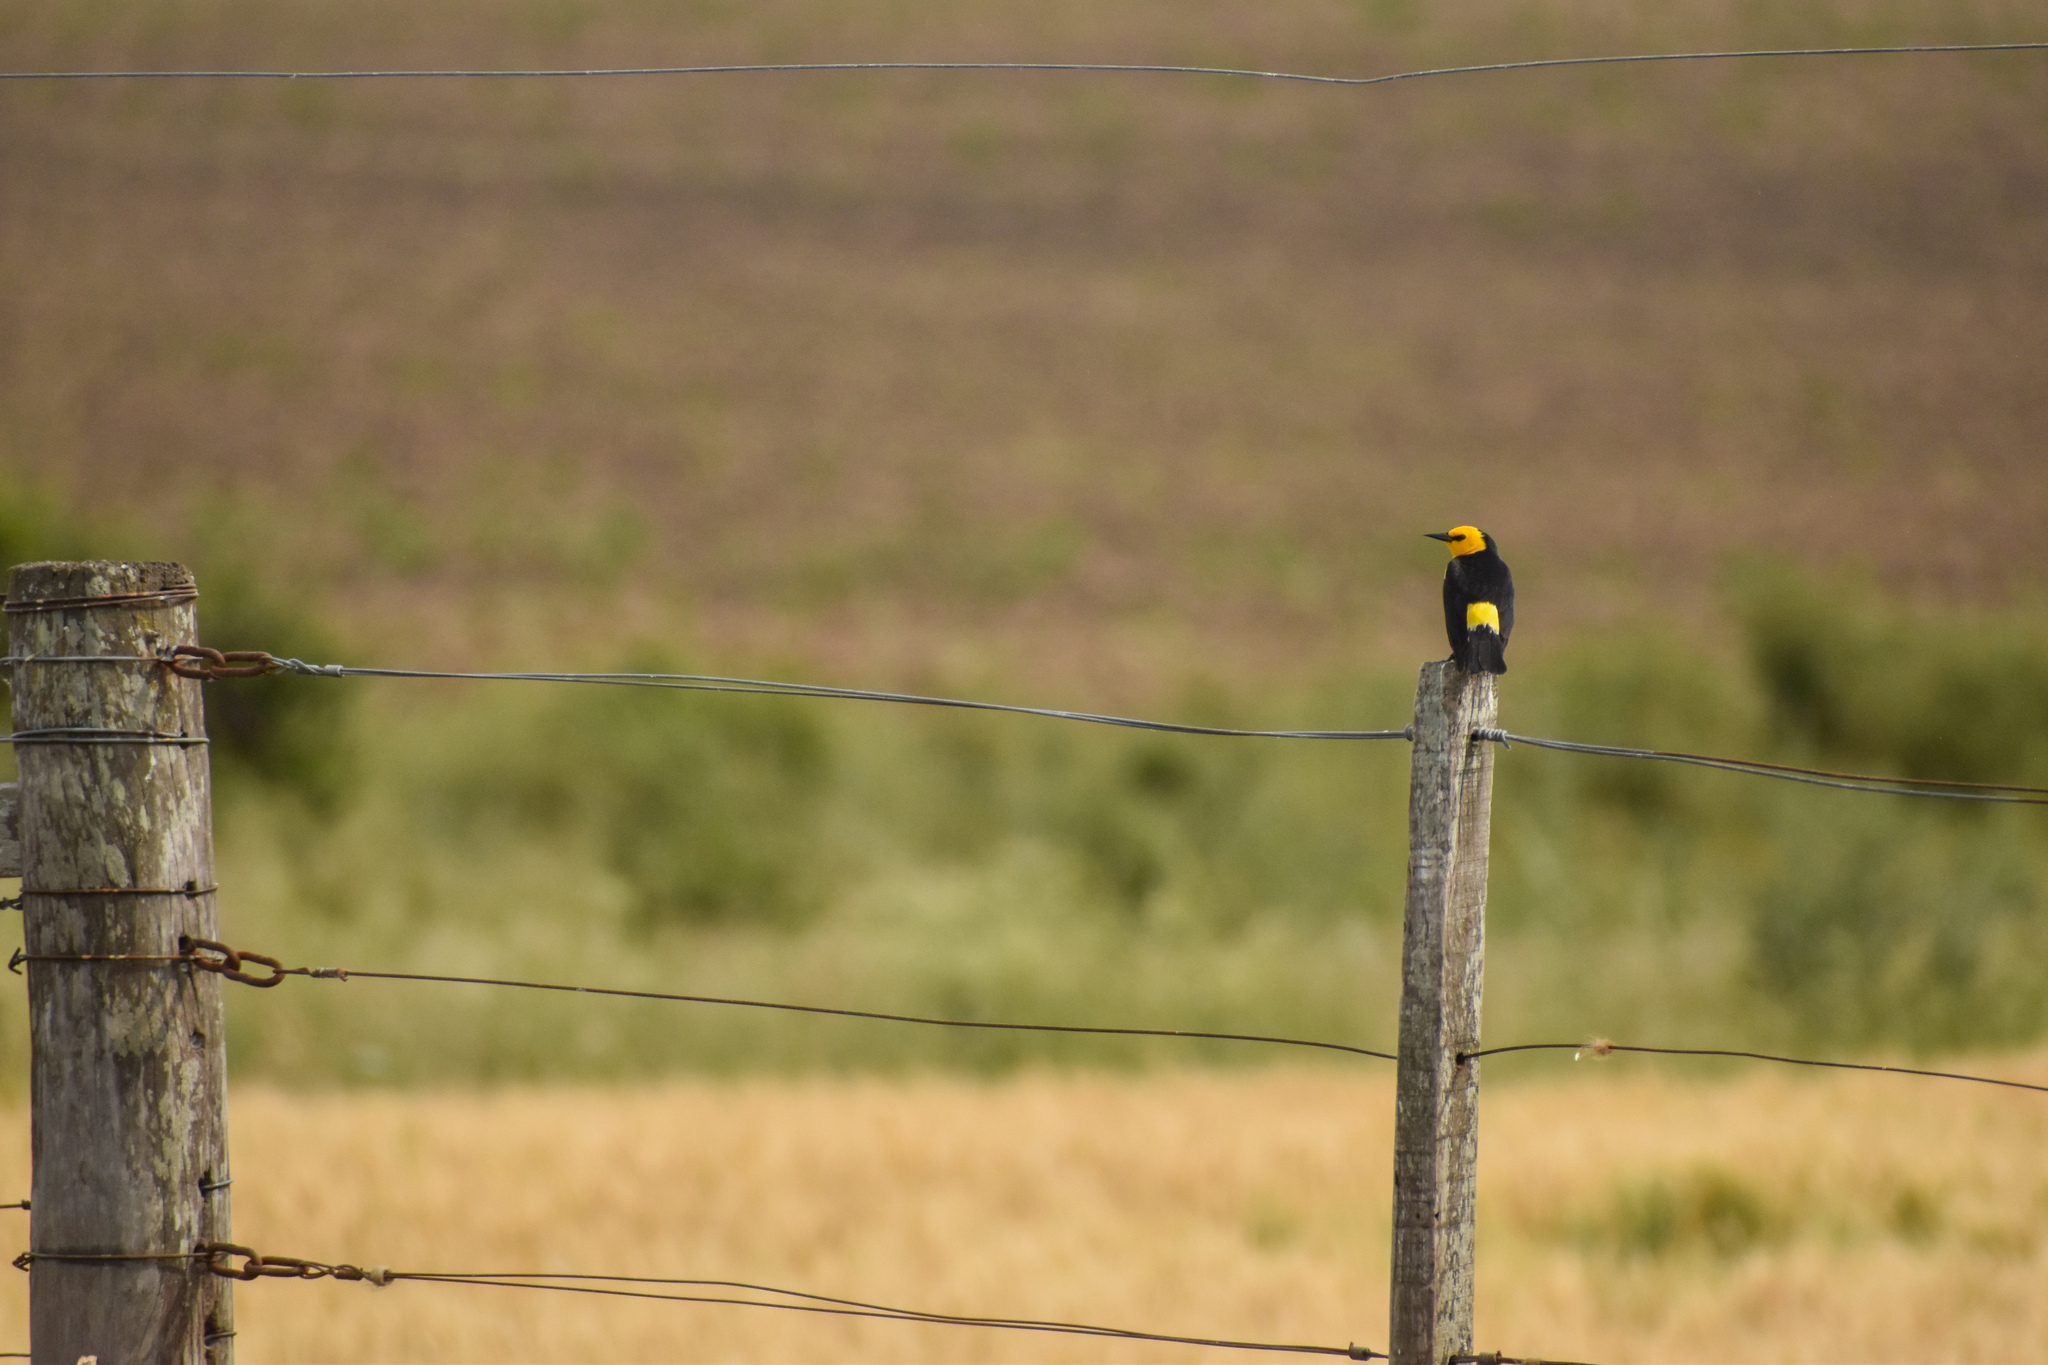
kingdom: Animalia
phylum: Chordata
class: Aves
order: Passeriformes
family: Icteridae
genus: Xanthopsar
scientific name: Xanthopsar flavus
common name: Saffron-cowled blackbird
